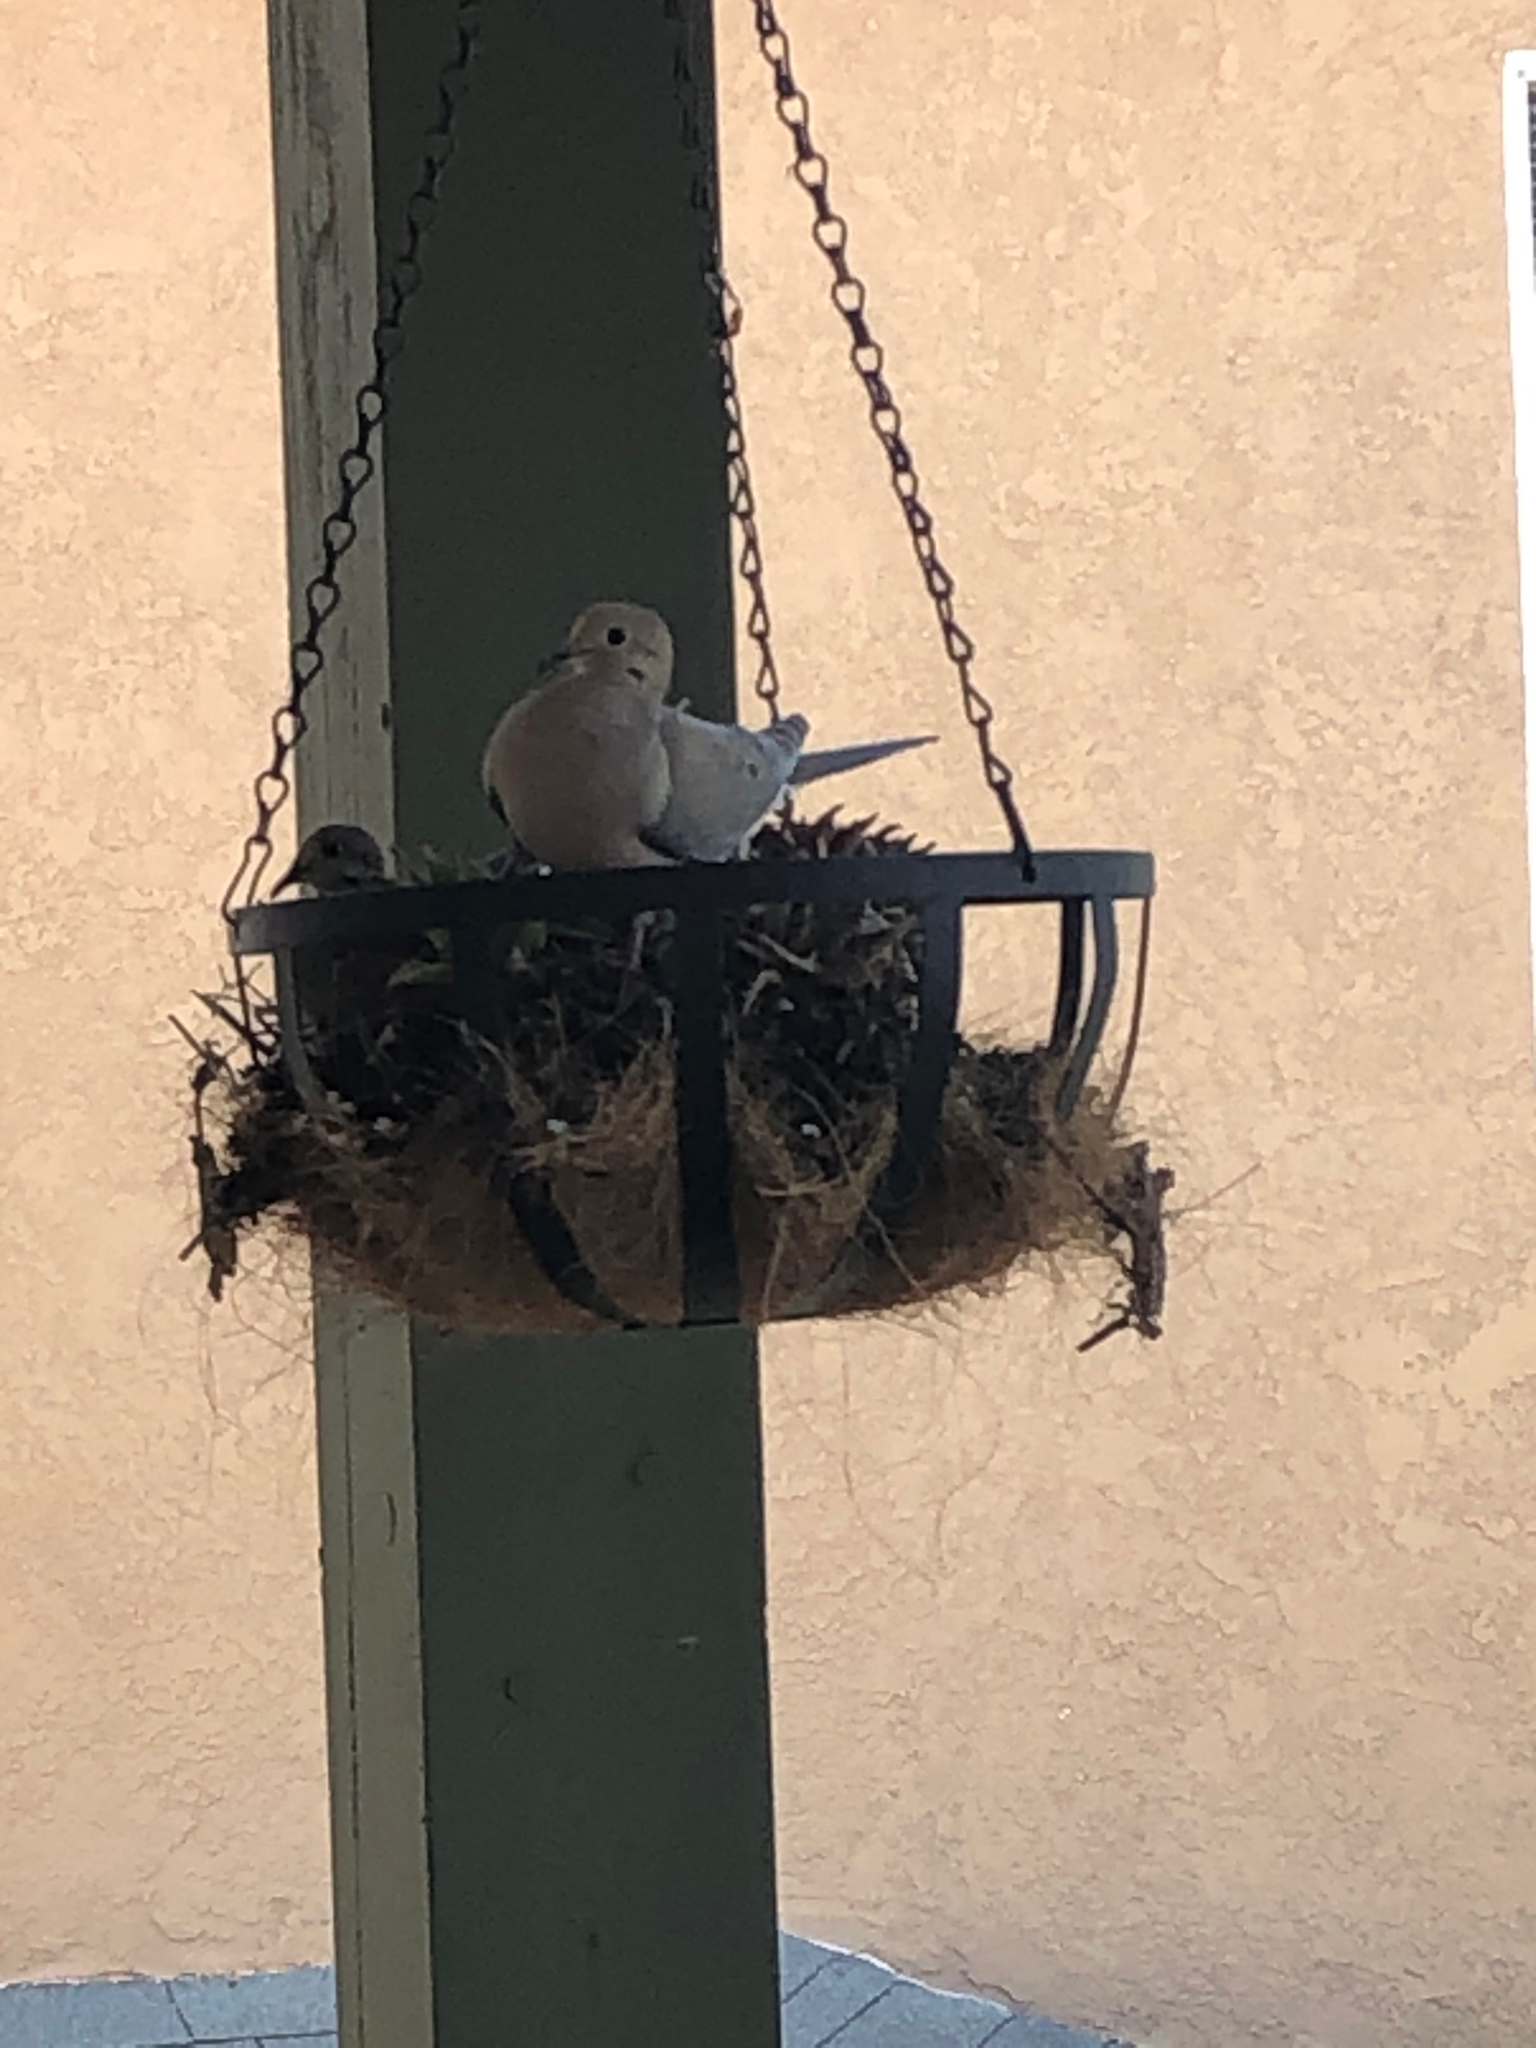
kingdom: Animalia
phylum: Chordata
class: Aves
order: Columbiformes
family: Columbidae
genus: Zenaida
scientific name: Zenaida macroura
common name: Mourning dove
